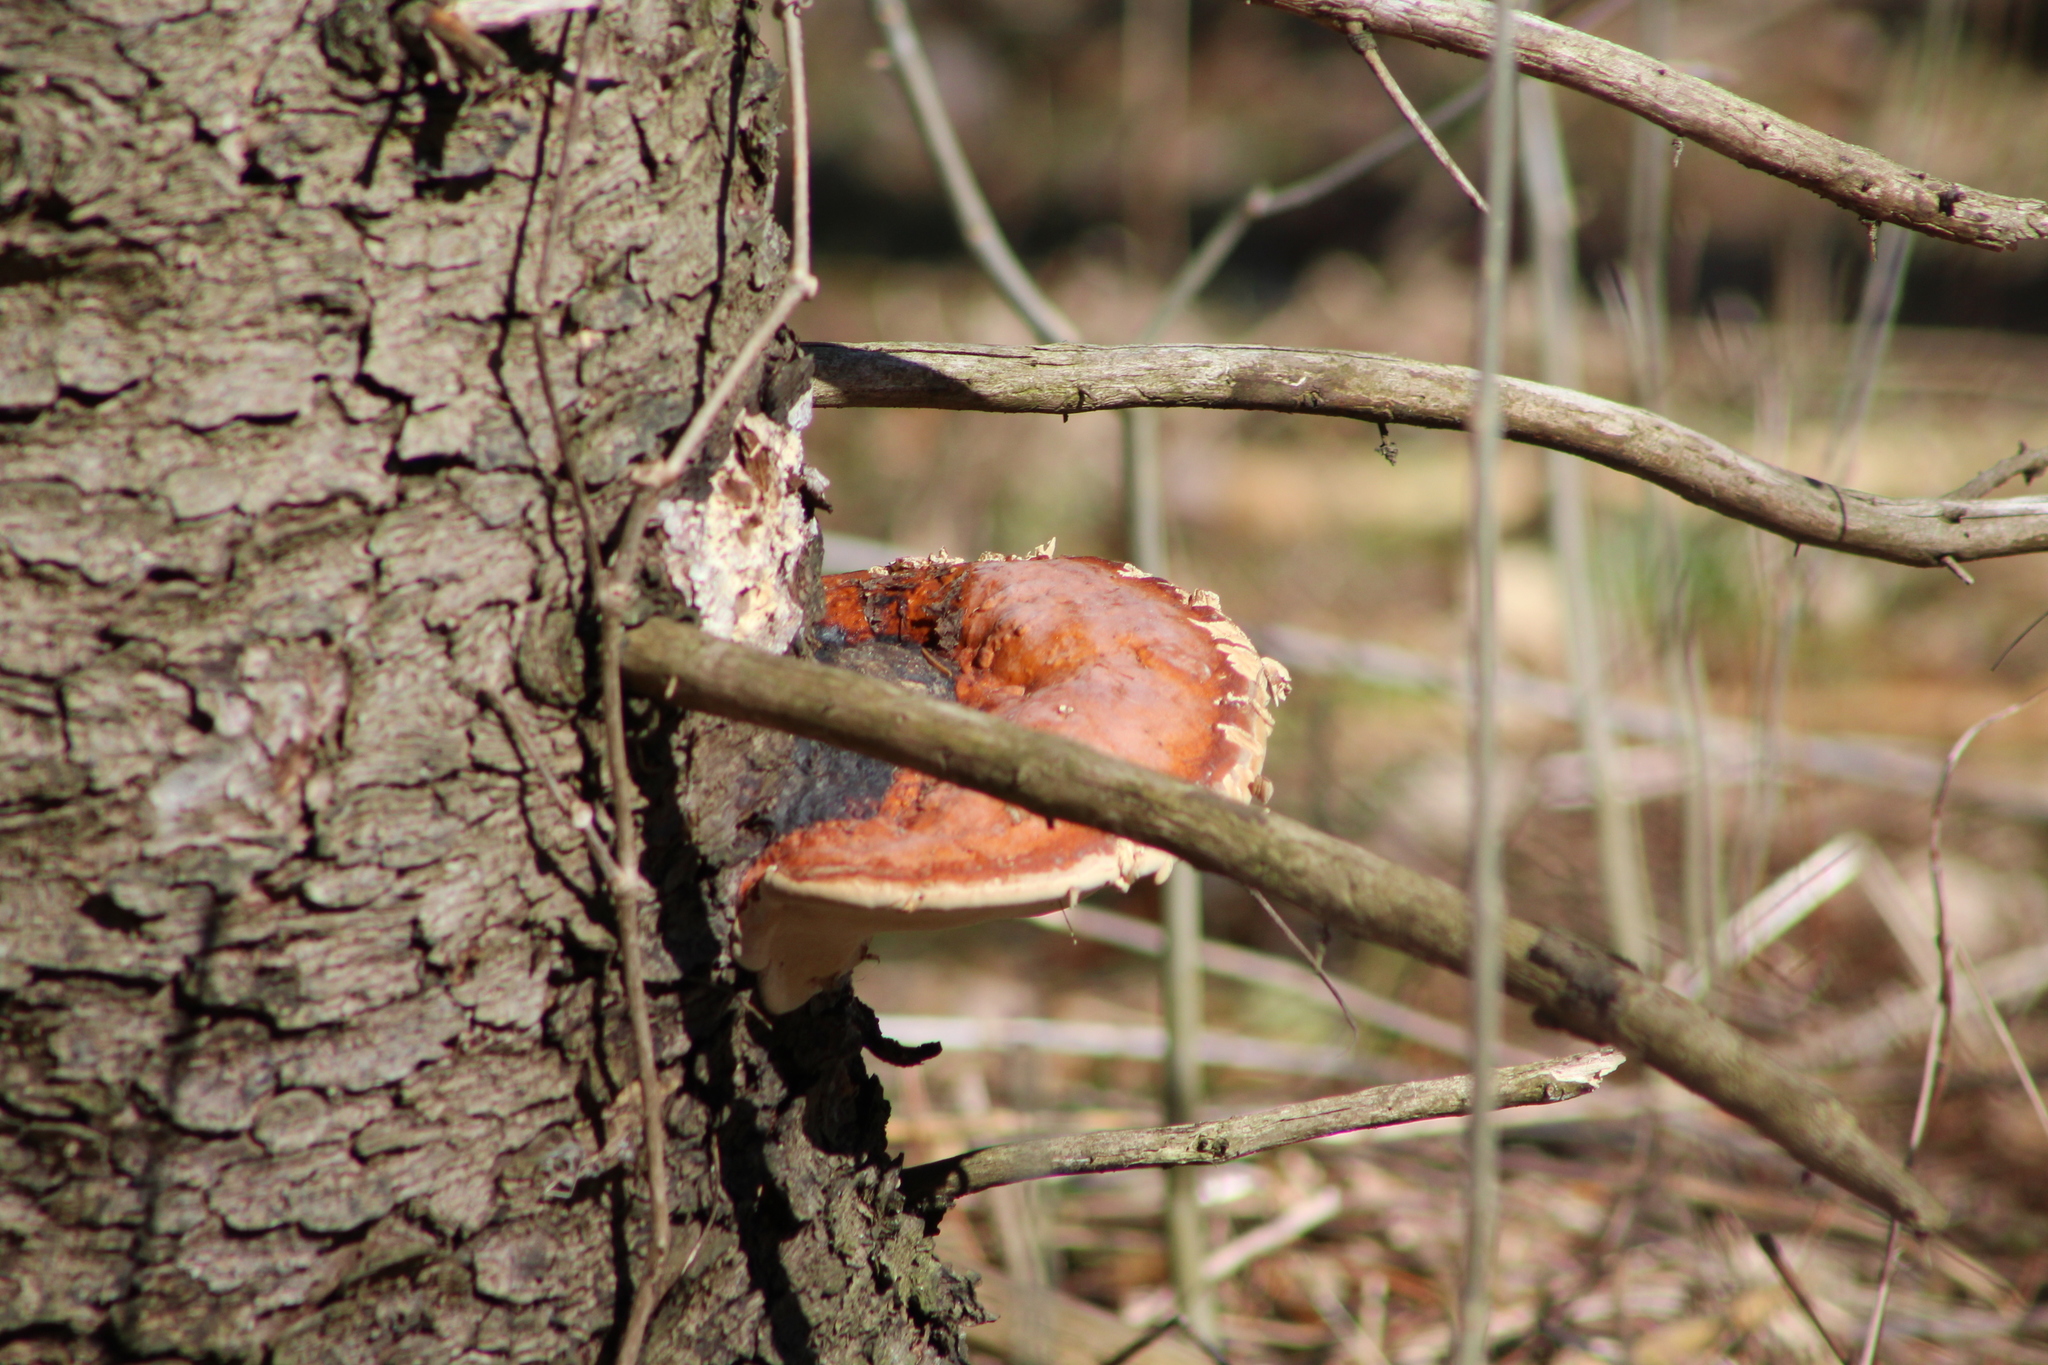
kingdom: Fungi
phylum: Basidiomycota
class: Agaricomycetes
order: Polyporales
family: Fomitopsidaceae
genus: Fomitopsis
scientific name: Fomitopsis mounceae
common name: Northern red belt
